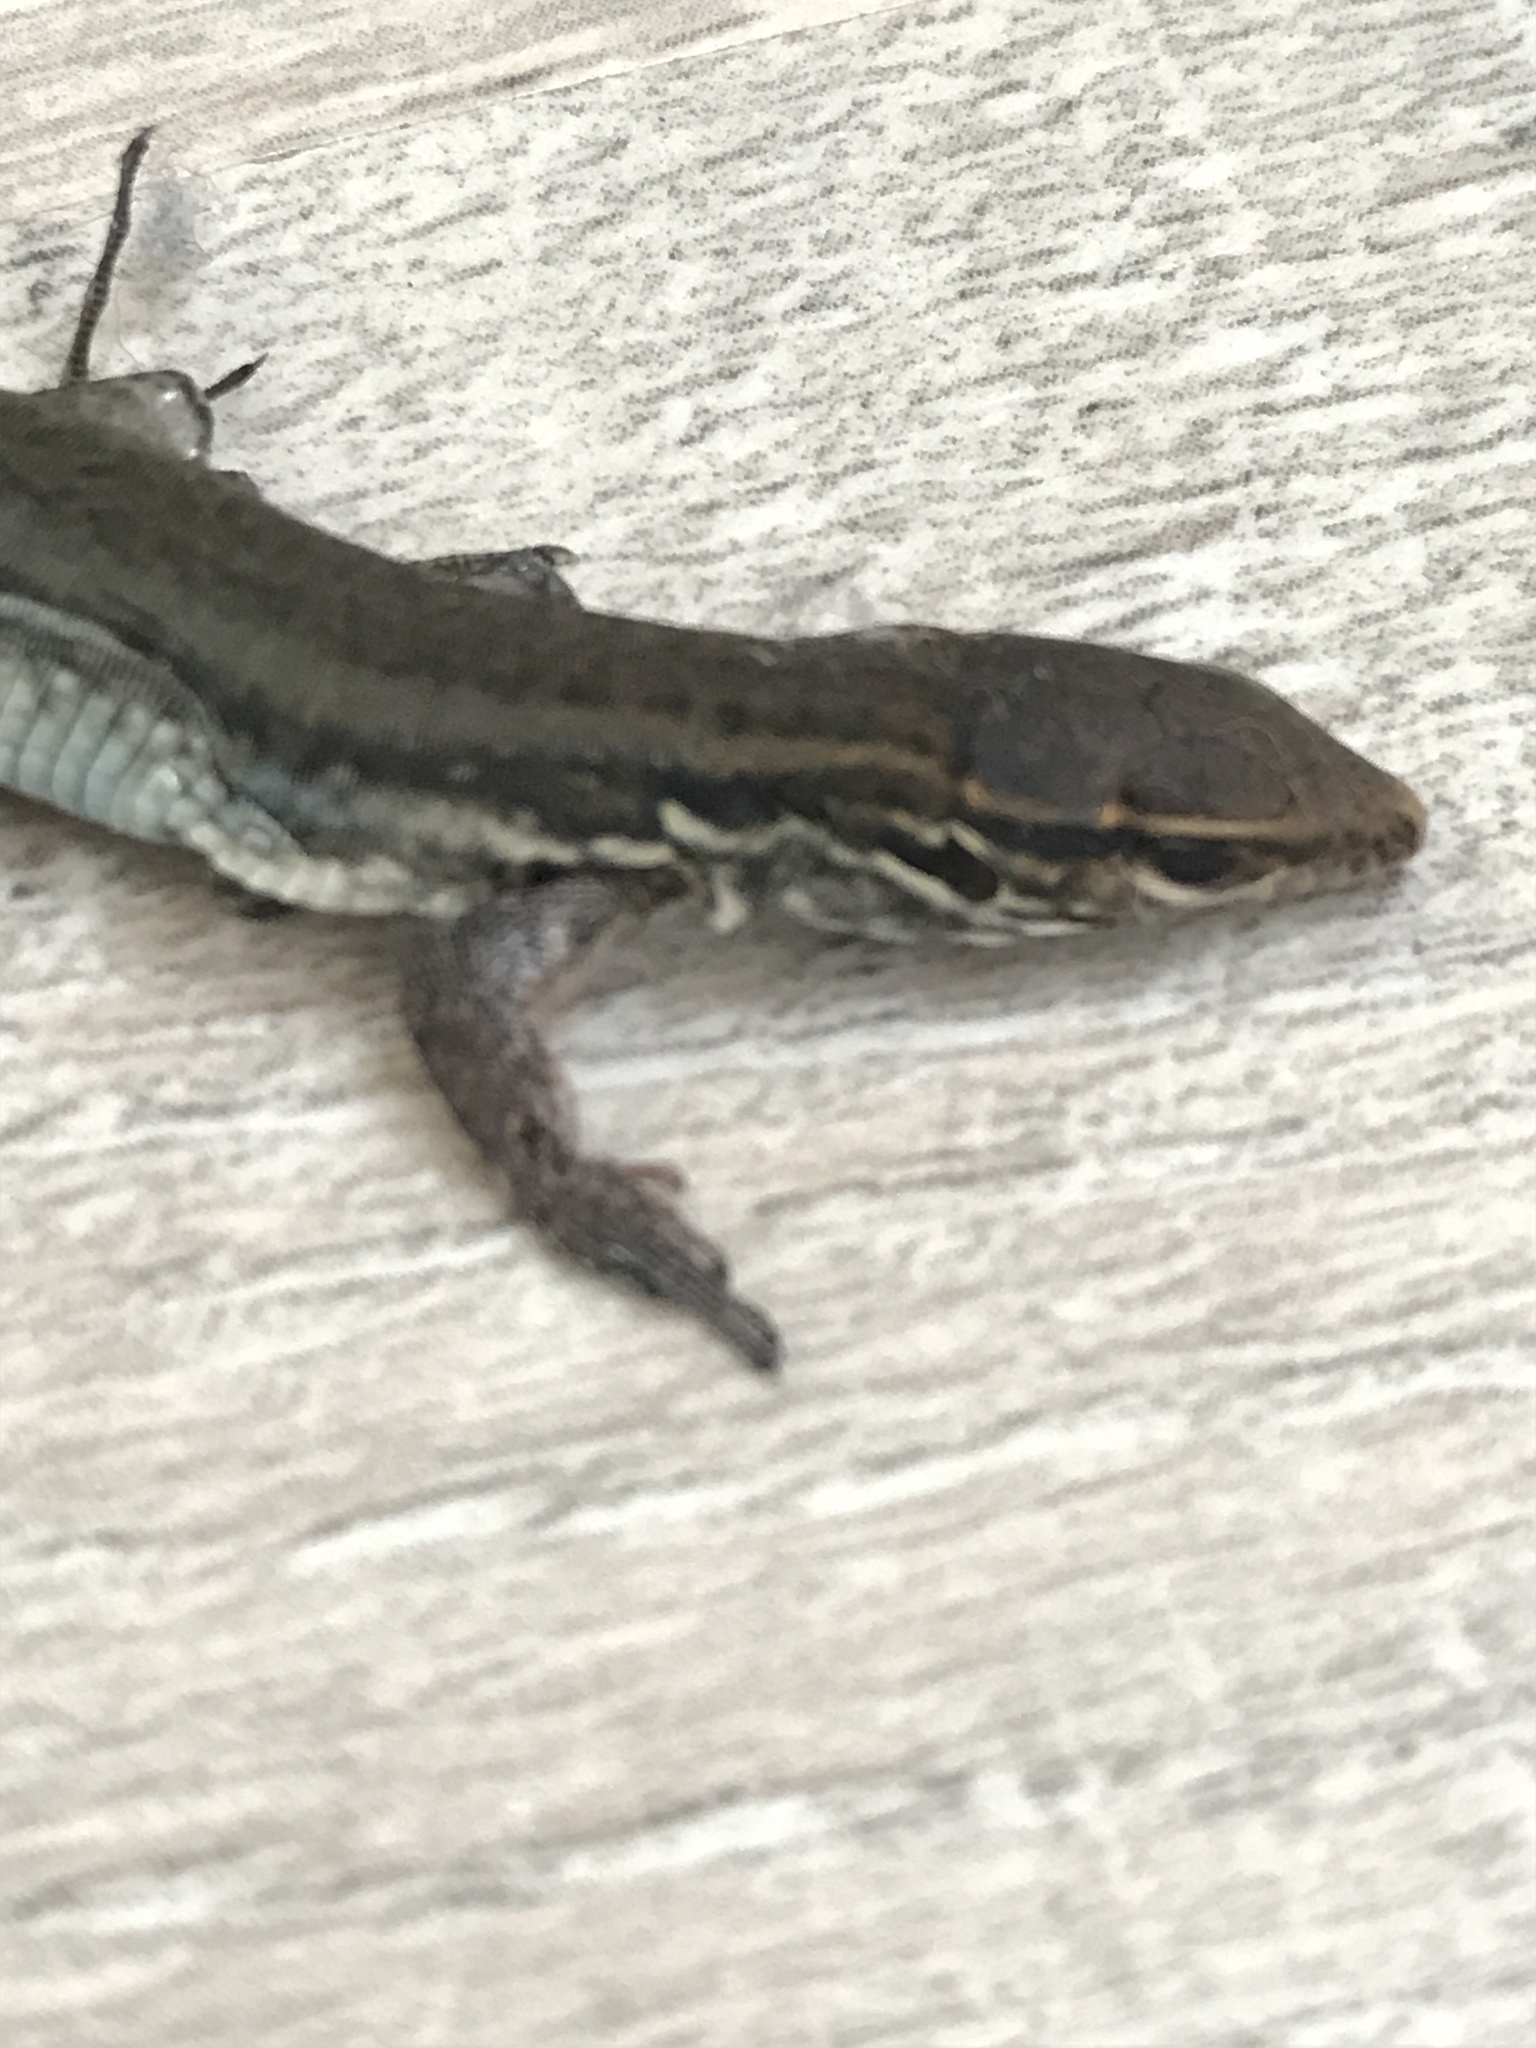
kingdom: Animalia
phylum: Chordata
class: Squamata
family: Lacertidae
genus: Gallotia
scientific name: Gallotia galloti
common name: Gallot's lizard
